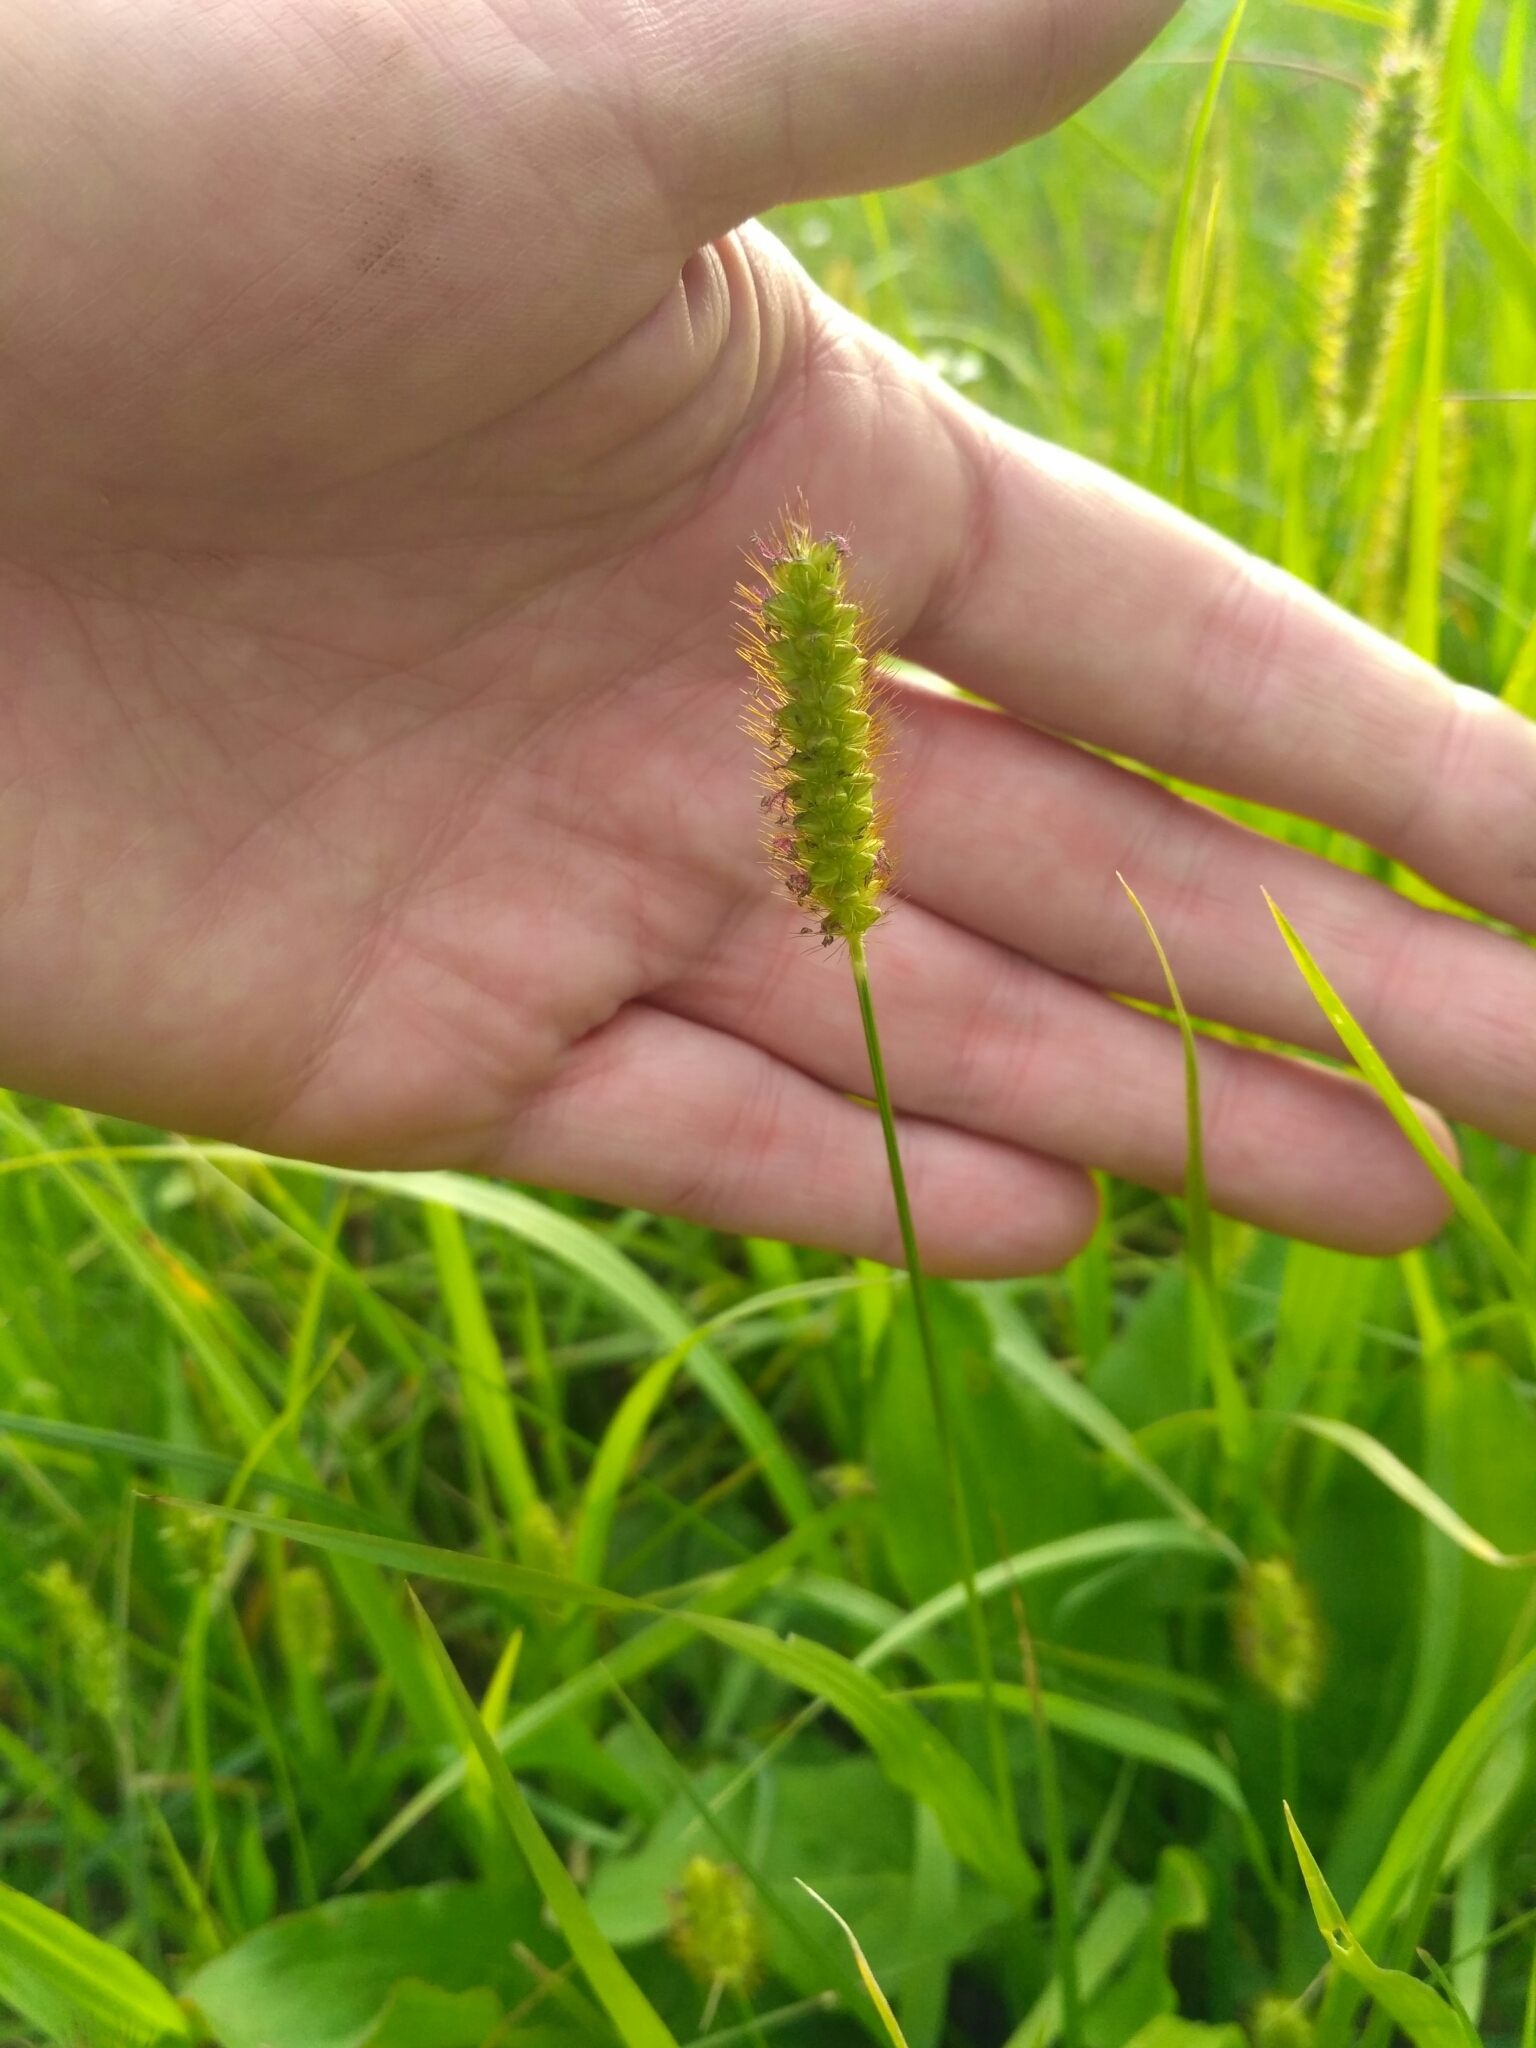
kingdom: Plantae
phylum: Tracheophyta
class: Liliopsida
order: Poales
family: Poaceae
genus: Setaria
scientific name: Setaria pumila
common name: Yellow bristle-grass
